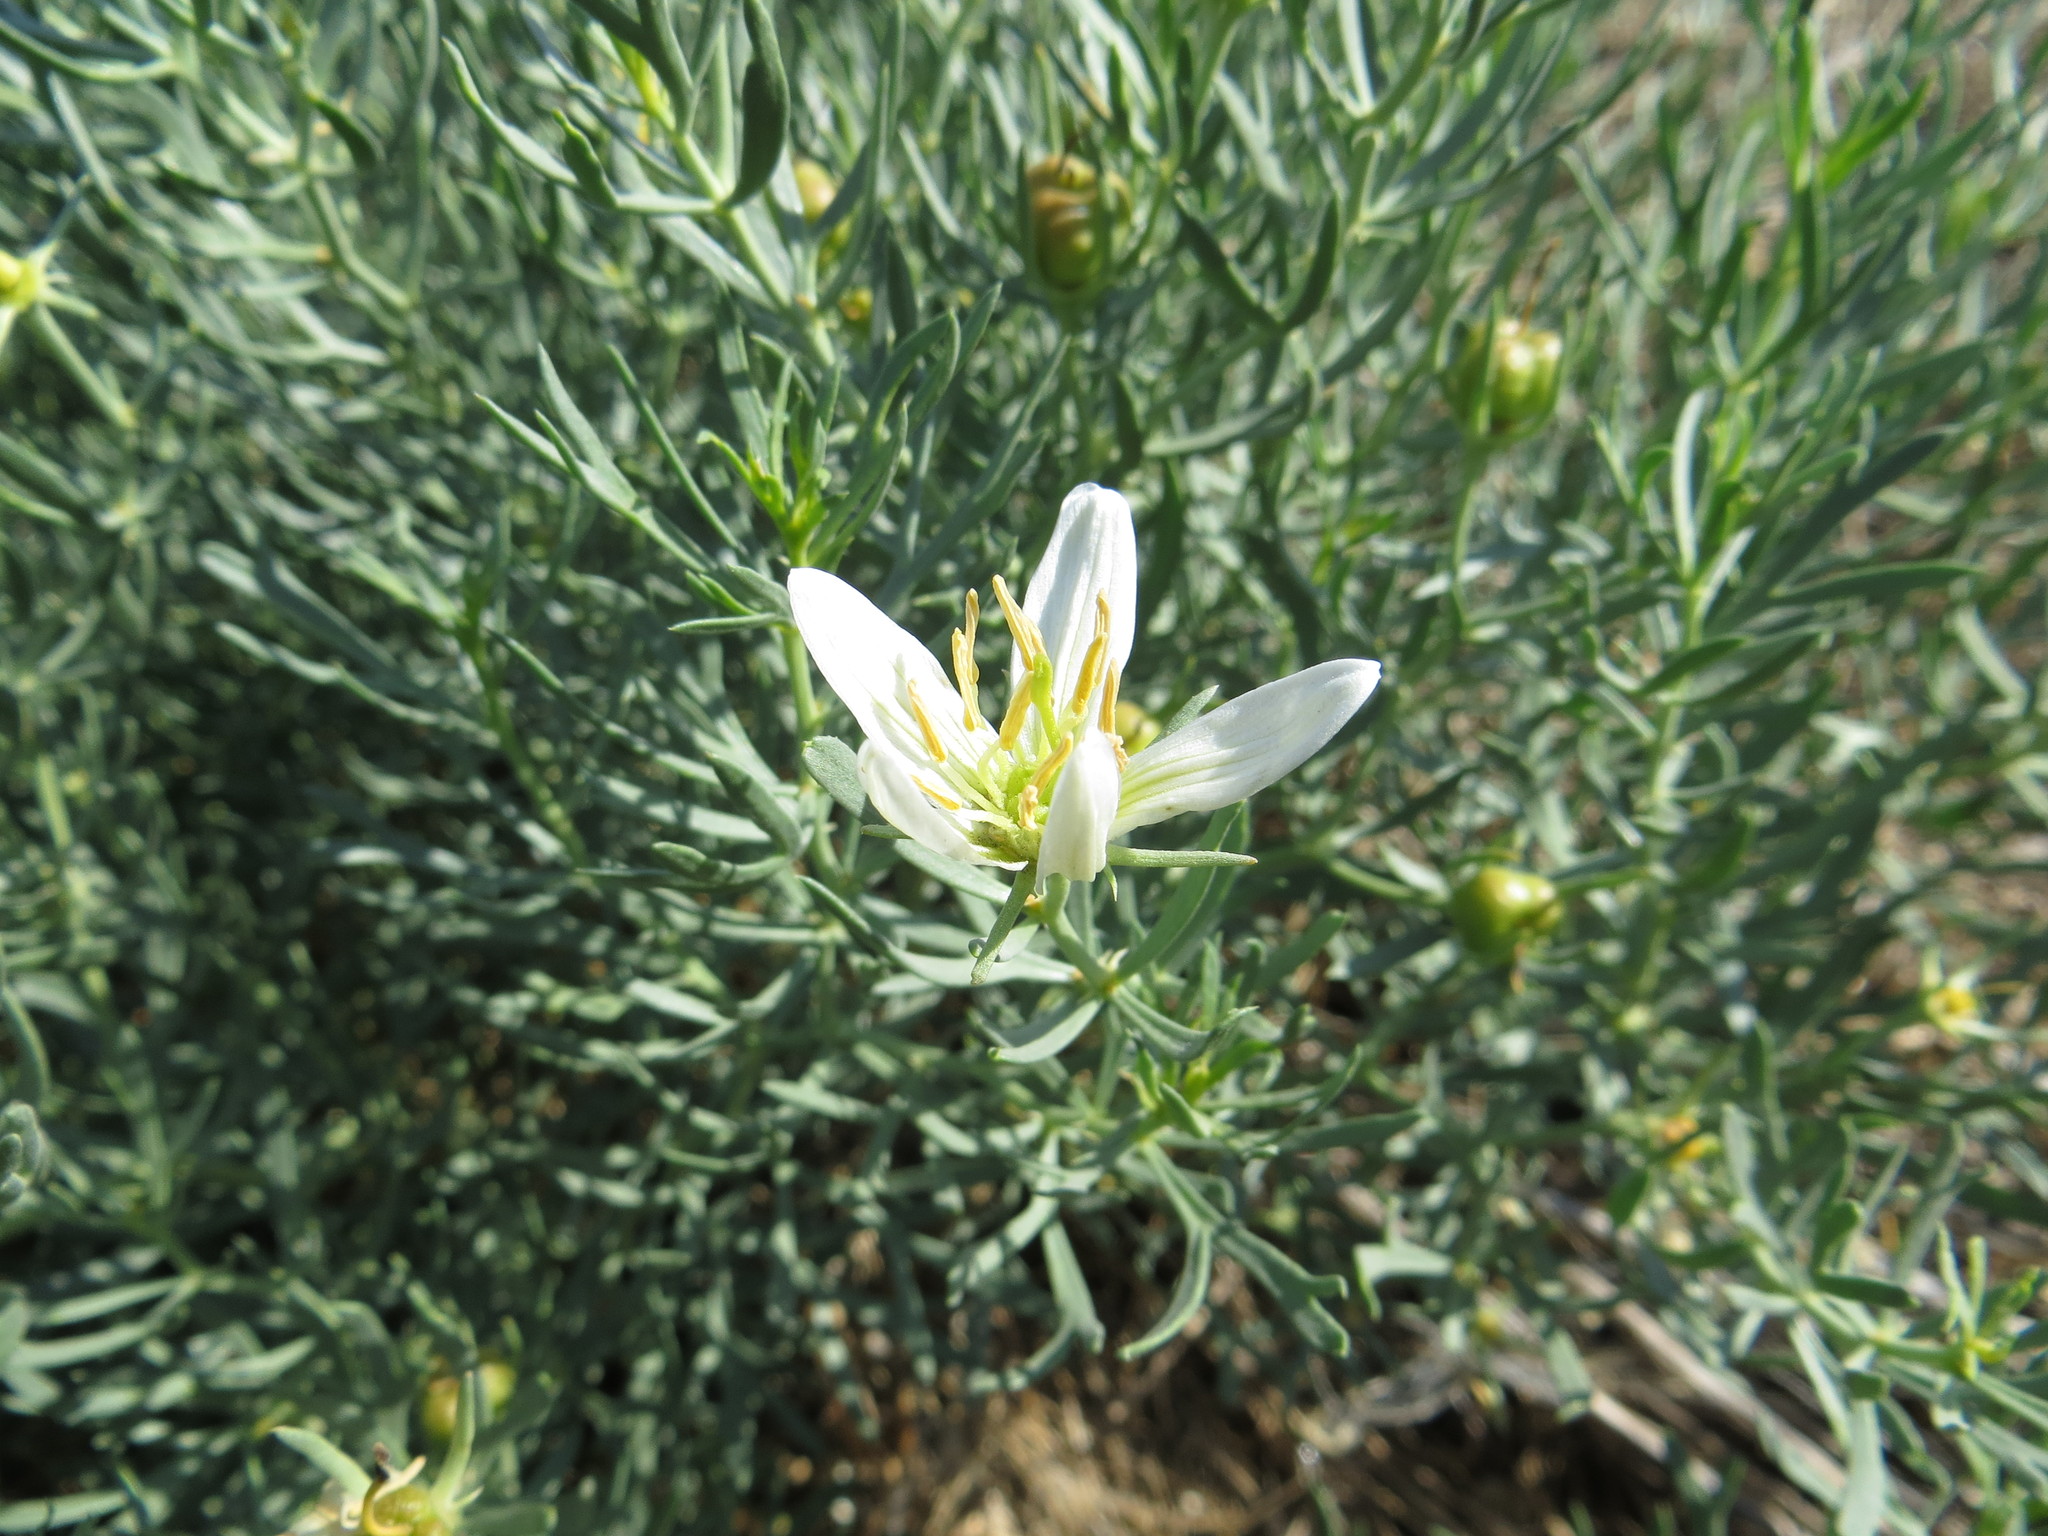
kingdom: Plantae
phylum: Tracheophyta
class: Magnoliopsida
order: Sapindales
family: Tetradiclidaceae
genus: Peganum
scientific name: Peganum harmala
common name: Harmal peganum
